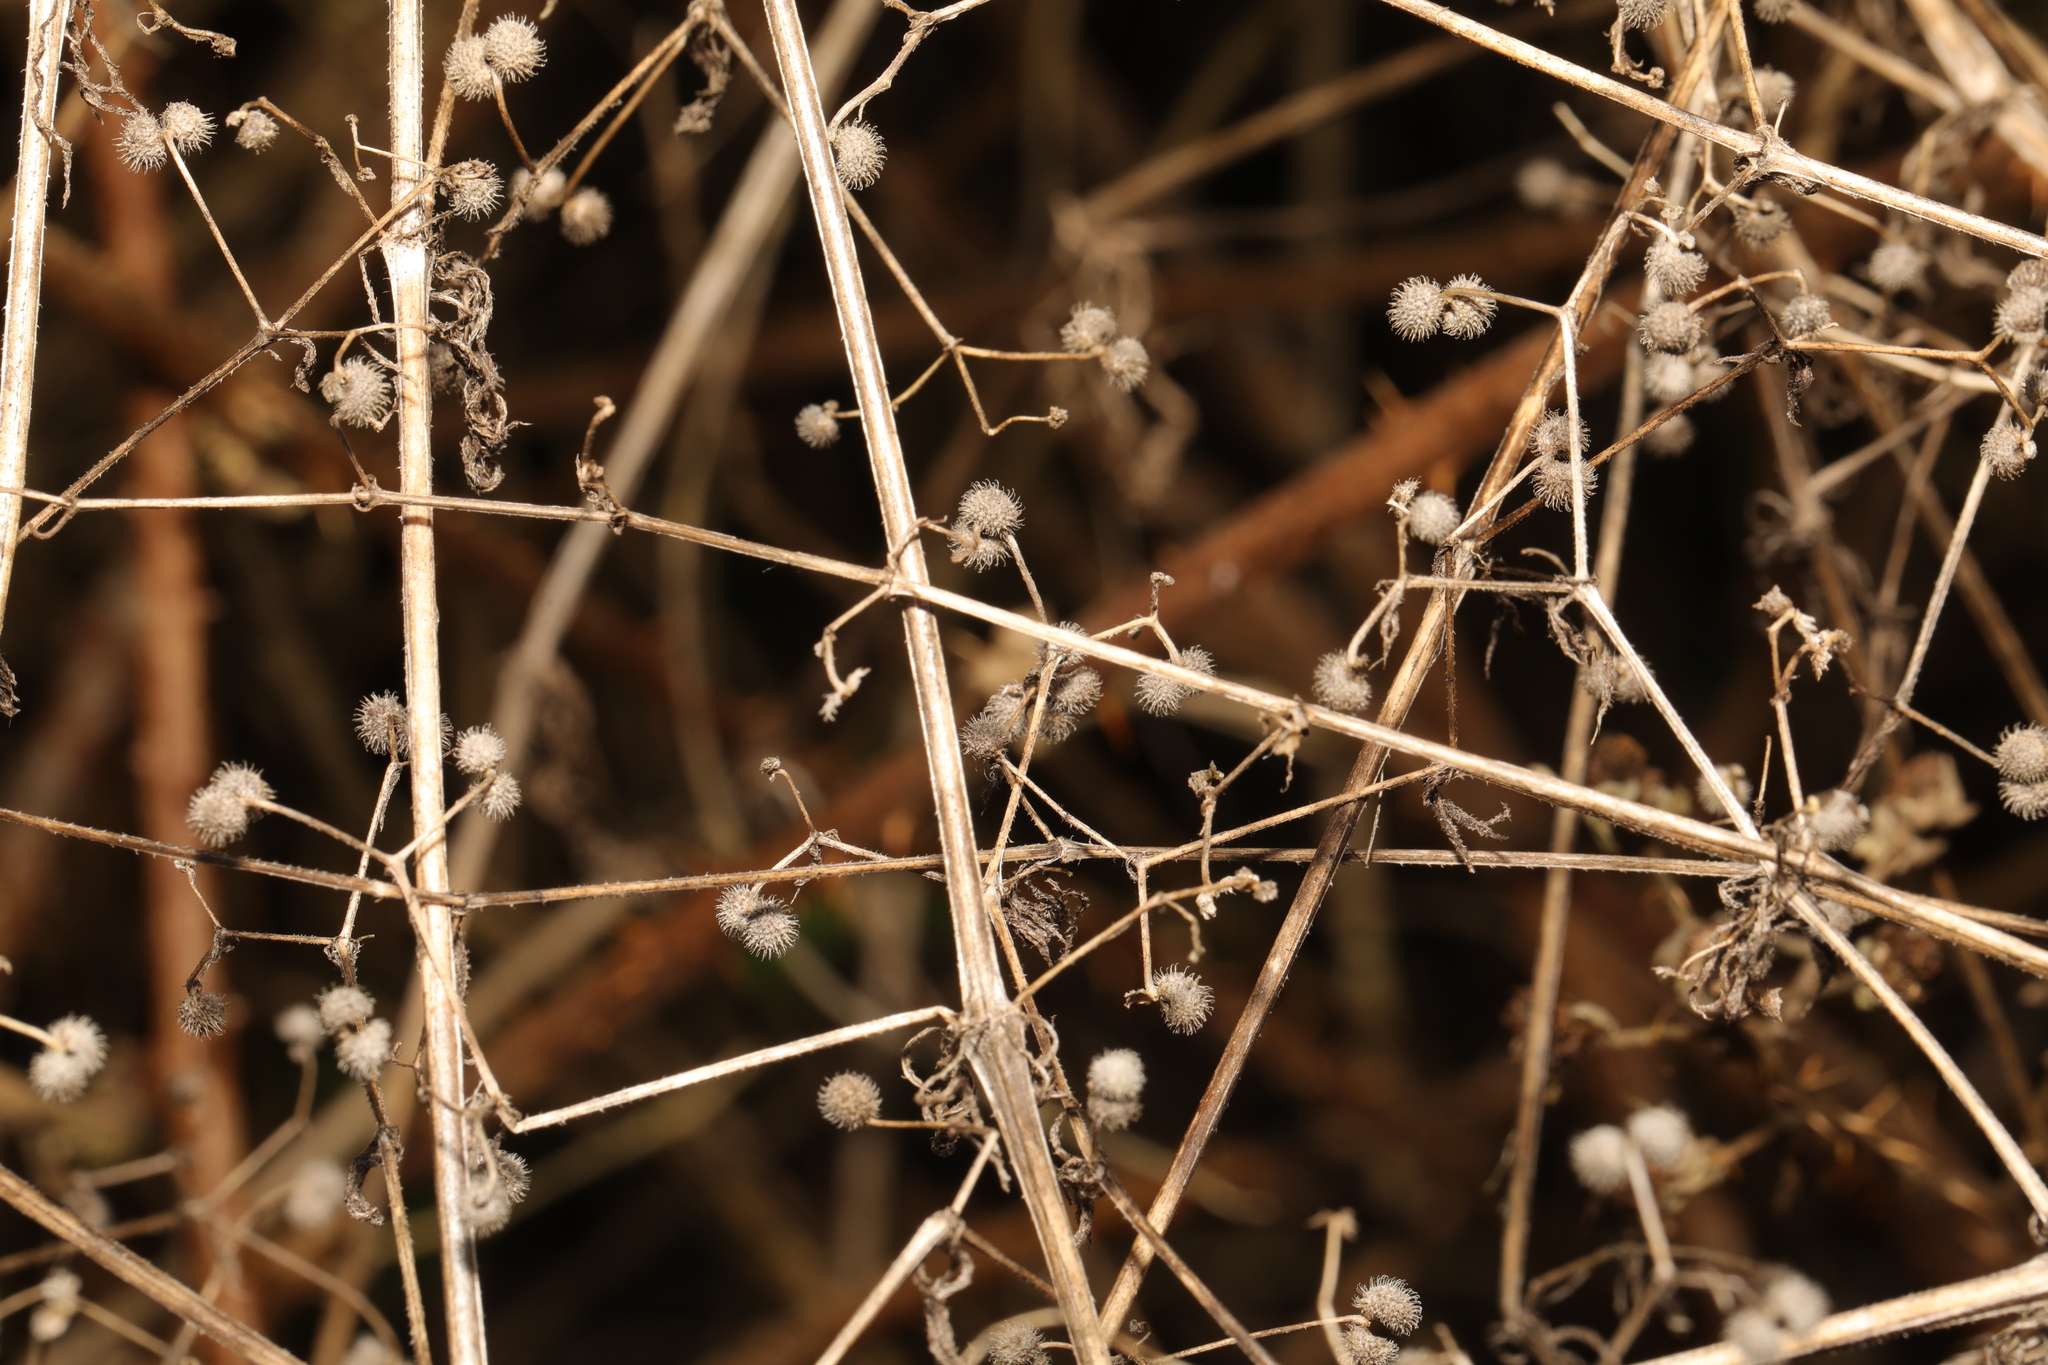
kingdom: Plantae
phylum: Tracheophyta
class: Magnoliopsida
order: Gentianales
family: Rubiaceae
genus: Galium
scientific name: Galium aparine
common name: Cleavers
